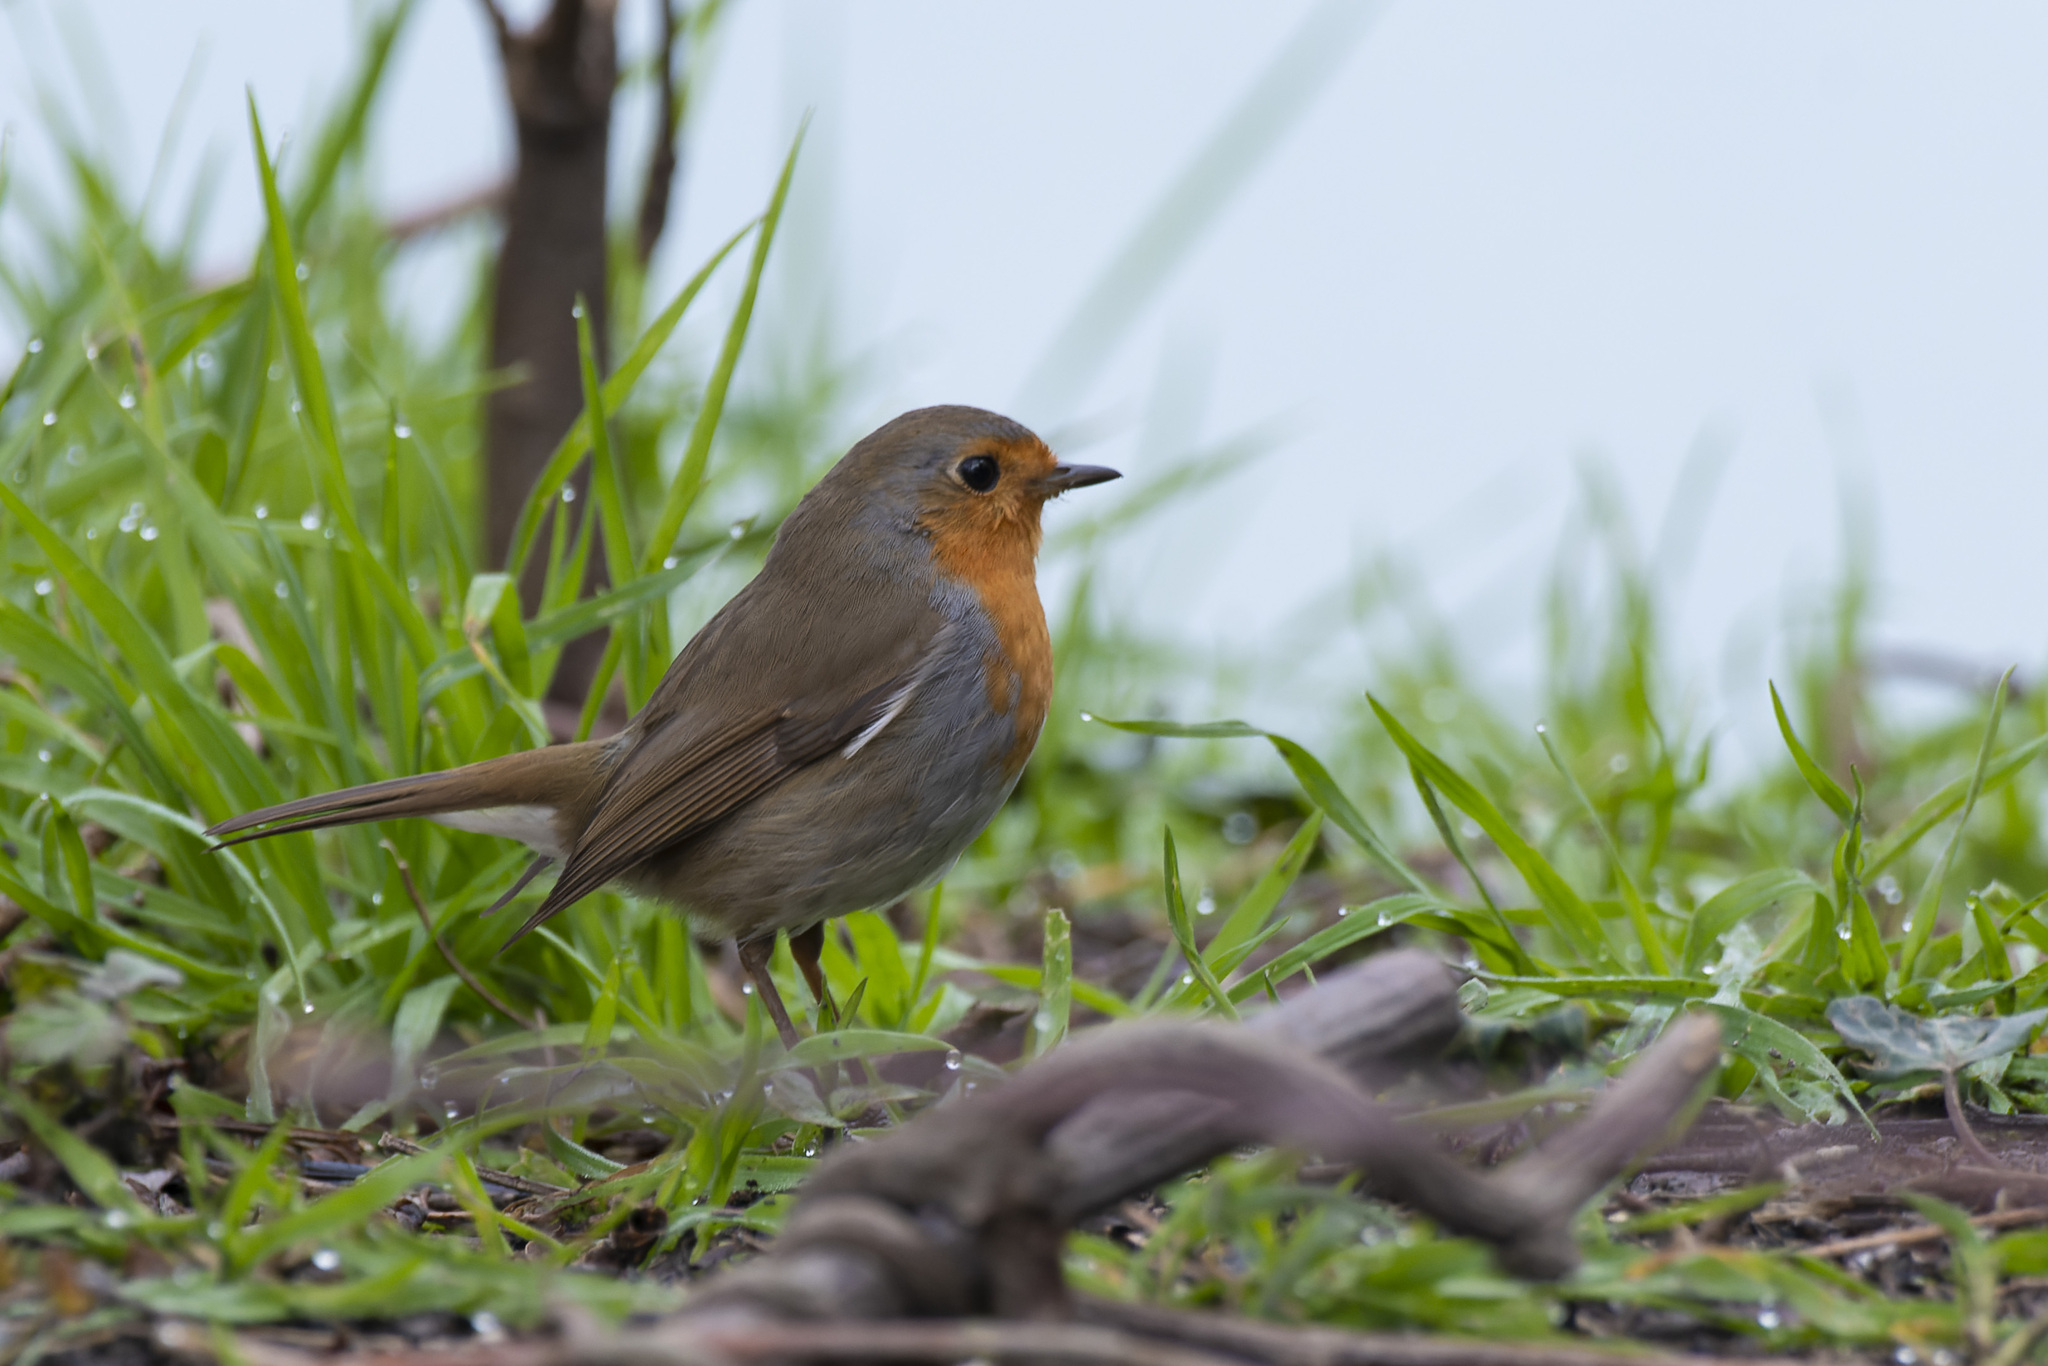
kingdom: Animalia
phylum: Chordata
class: Aves
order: Passeriformes
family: Muscicapidae
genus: Erithacus
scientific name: Erithacus rubecula
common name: European robin
